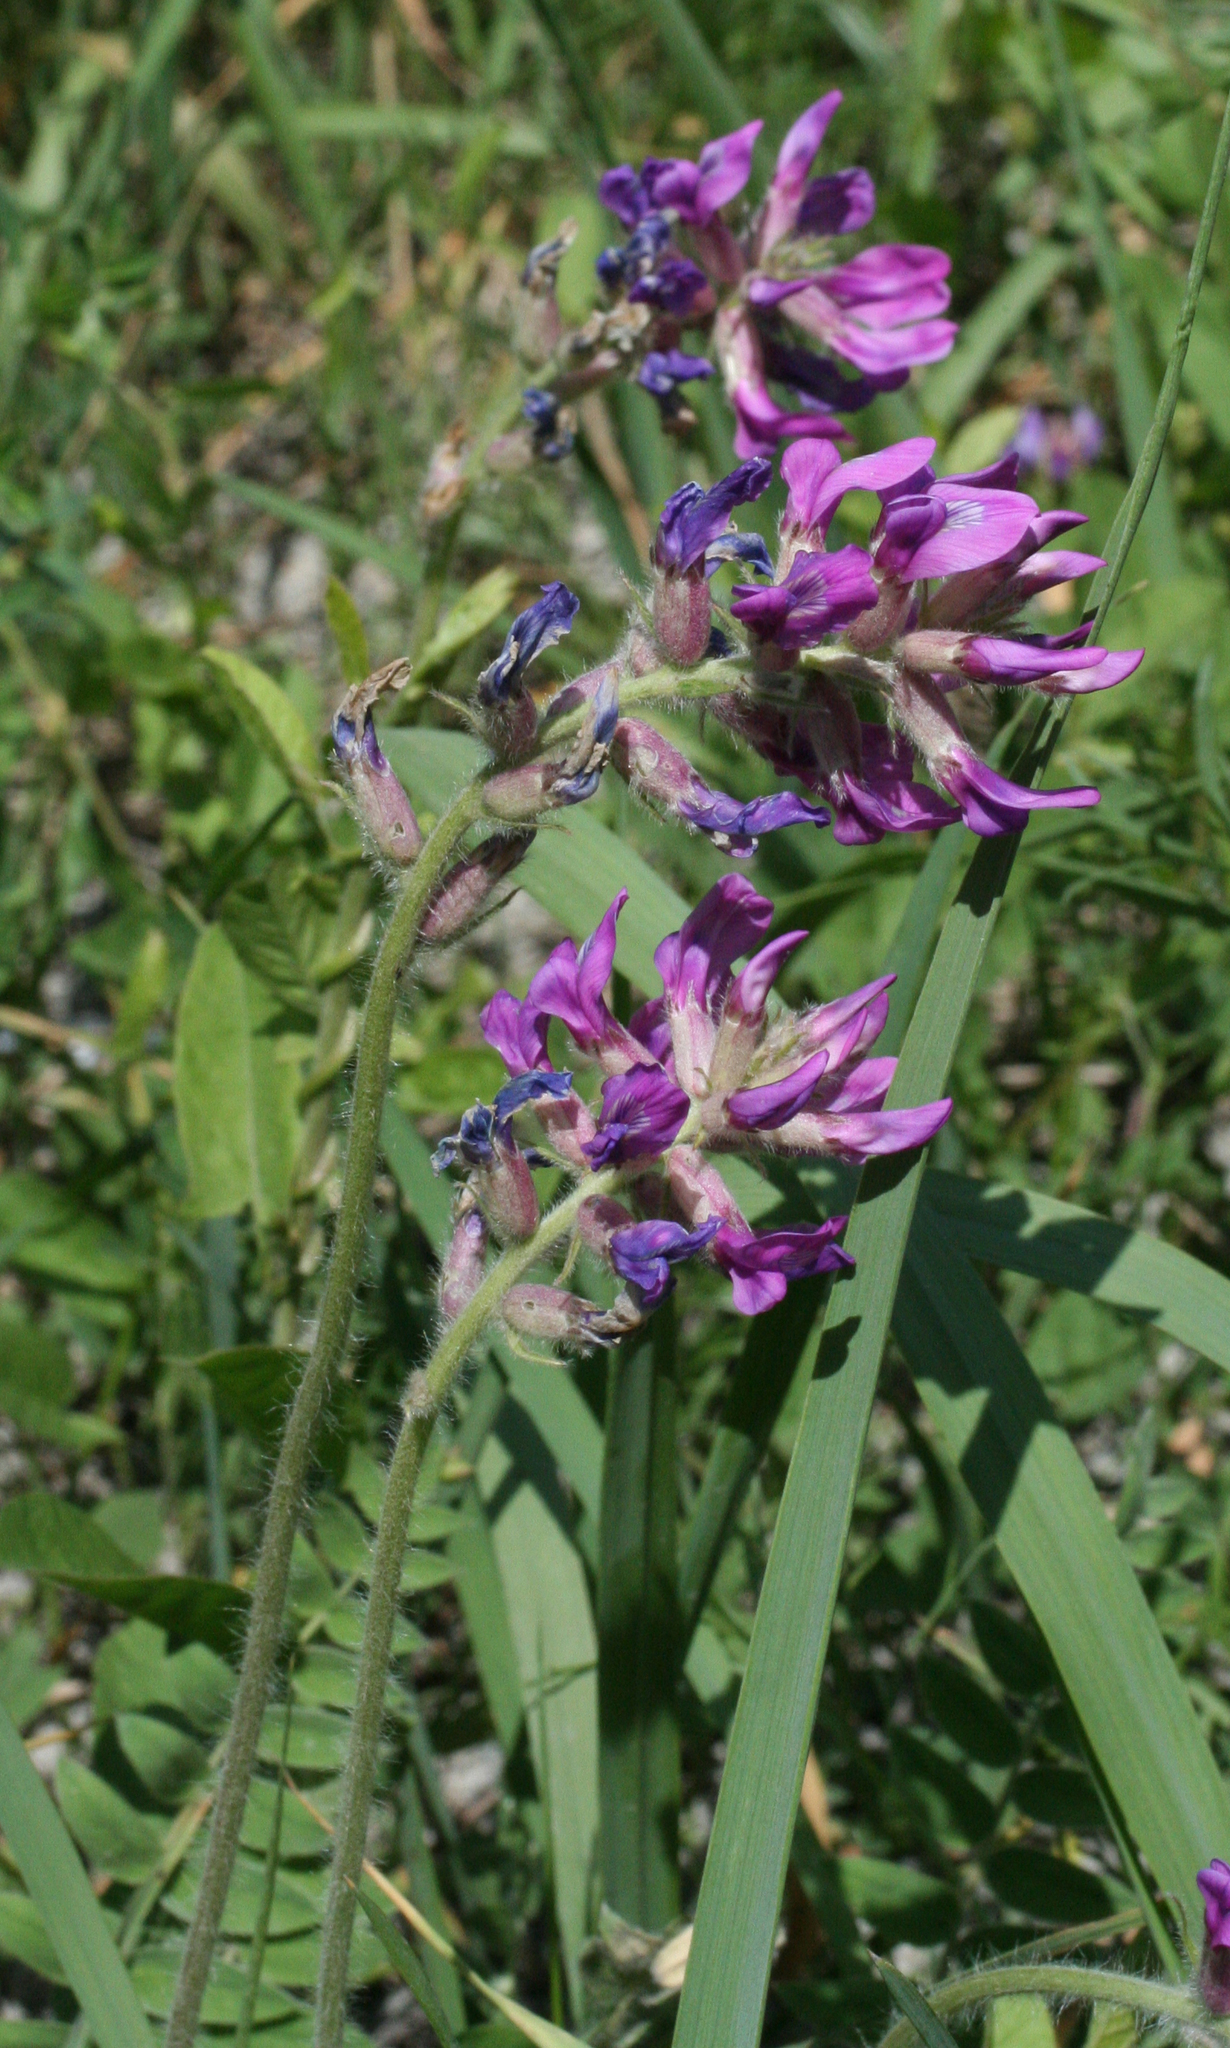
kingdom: Plantae
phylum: Tracheophyta
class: Magnoliopsida
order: Fabales
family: Fabaceae
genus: Oxytropis
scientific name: Oxytropis campanulata
